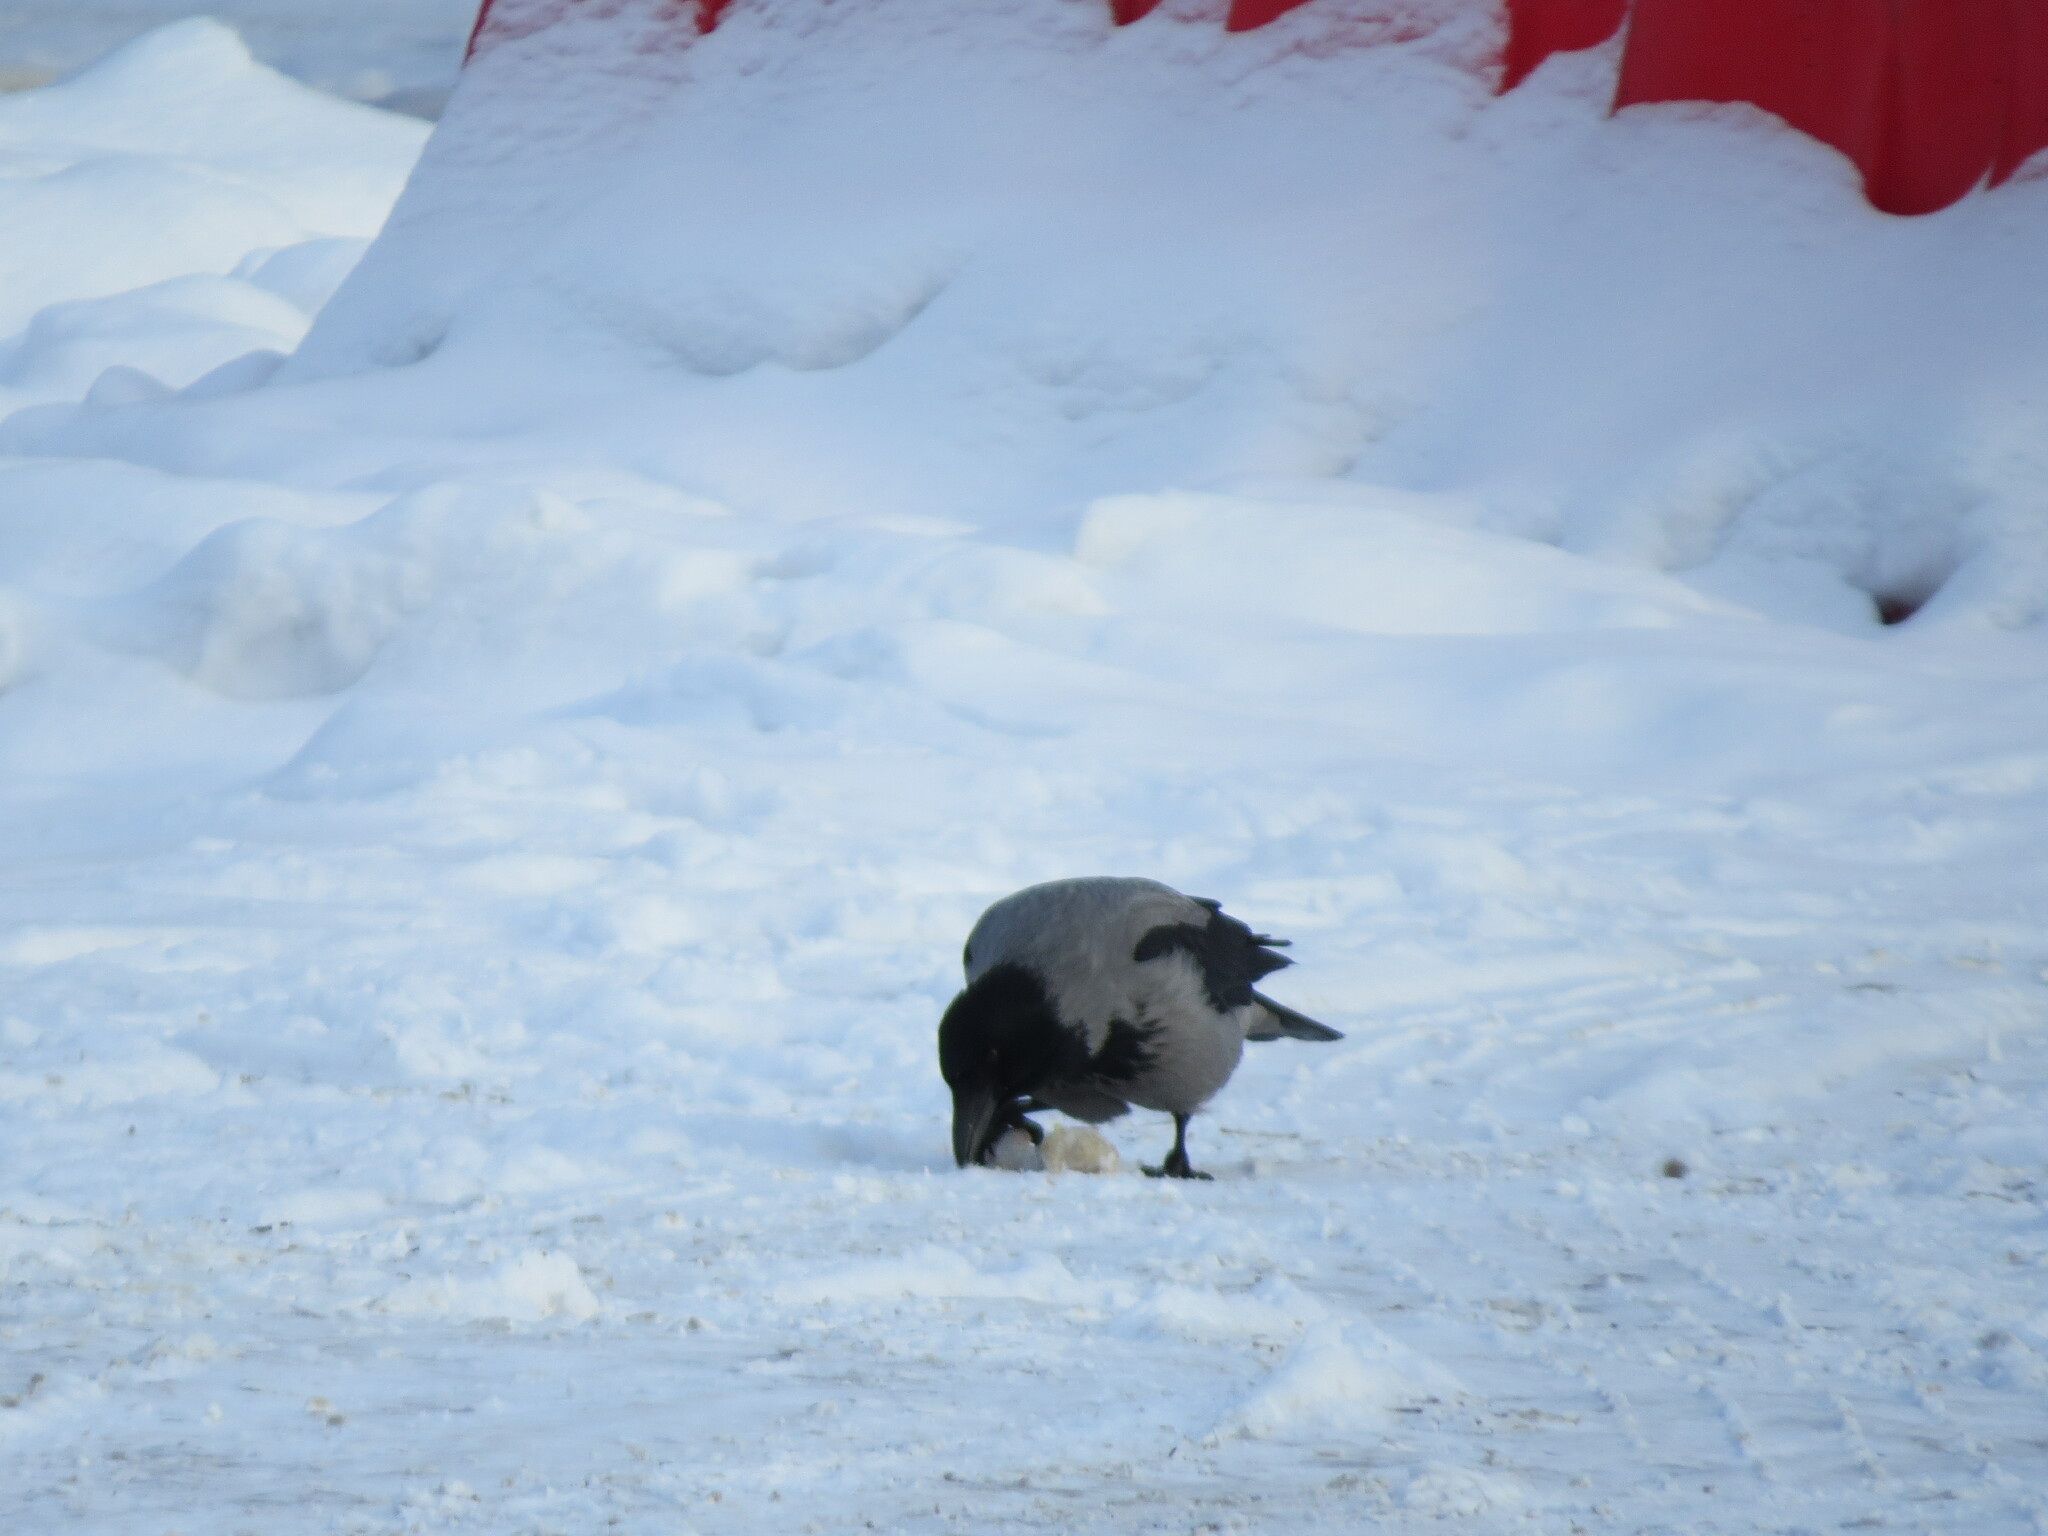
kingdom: Animalia
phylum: Chordata
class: Aves
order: Passeriformes
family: Corvidae
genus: Corvus
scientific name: Corvus cornix
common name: Hooded crow
